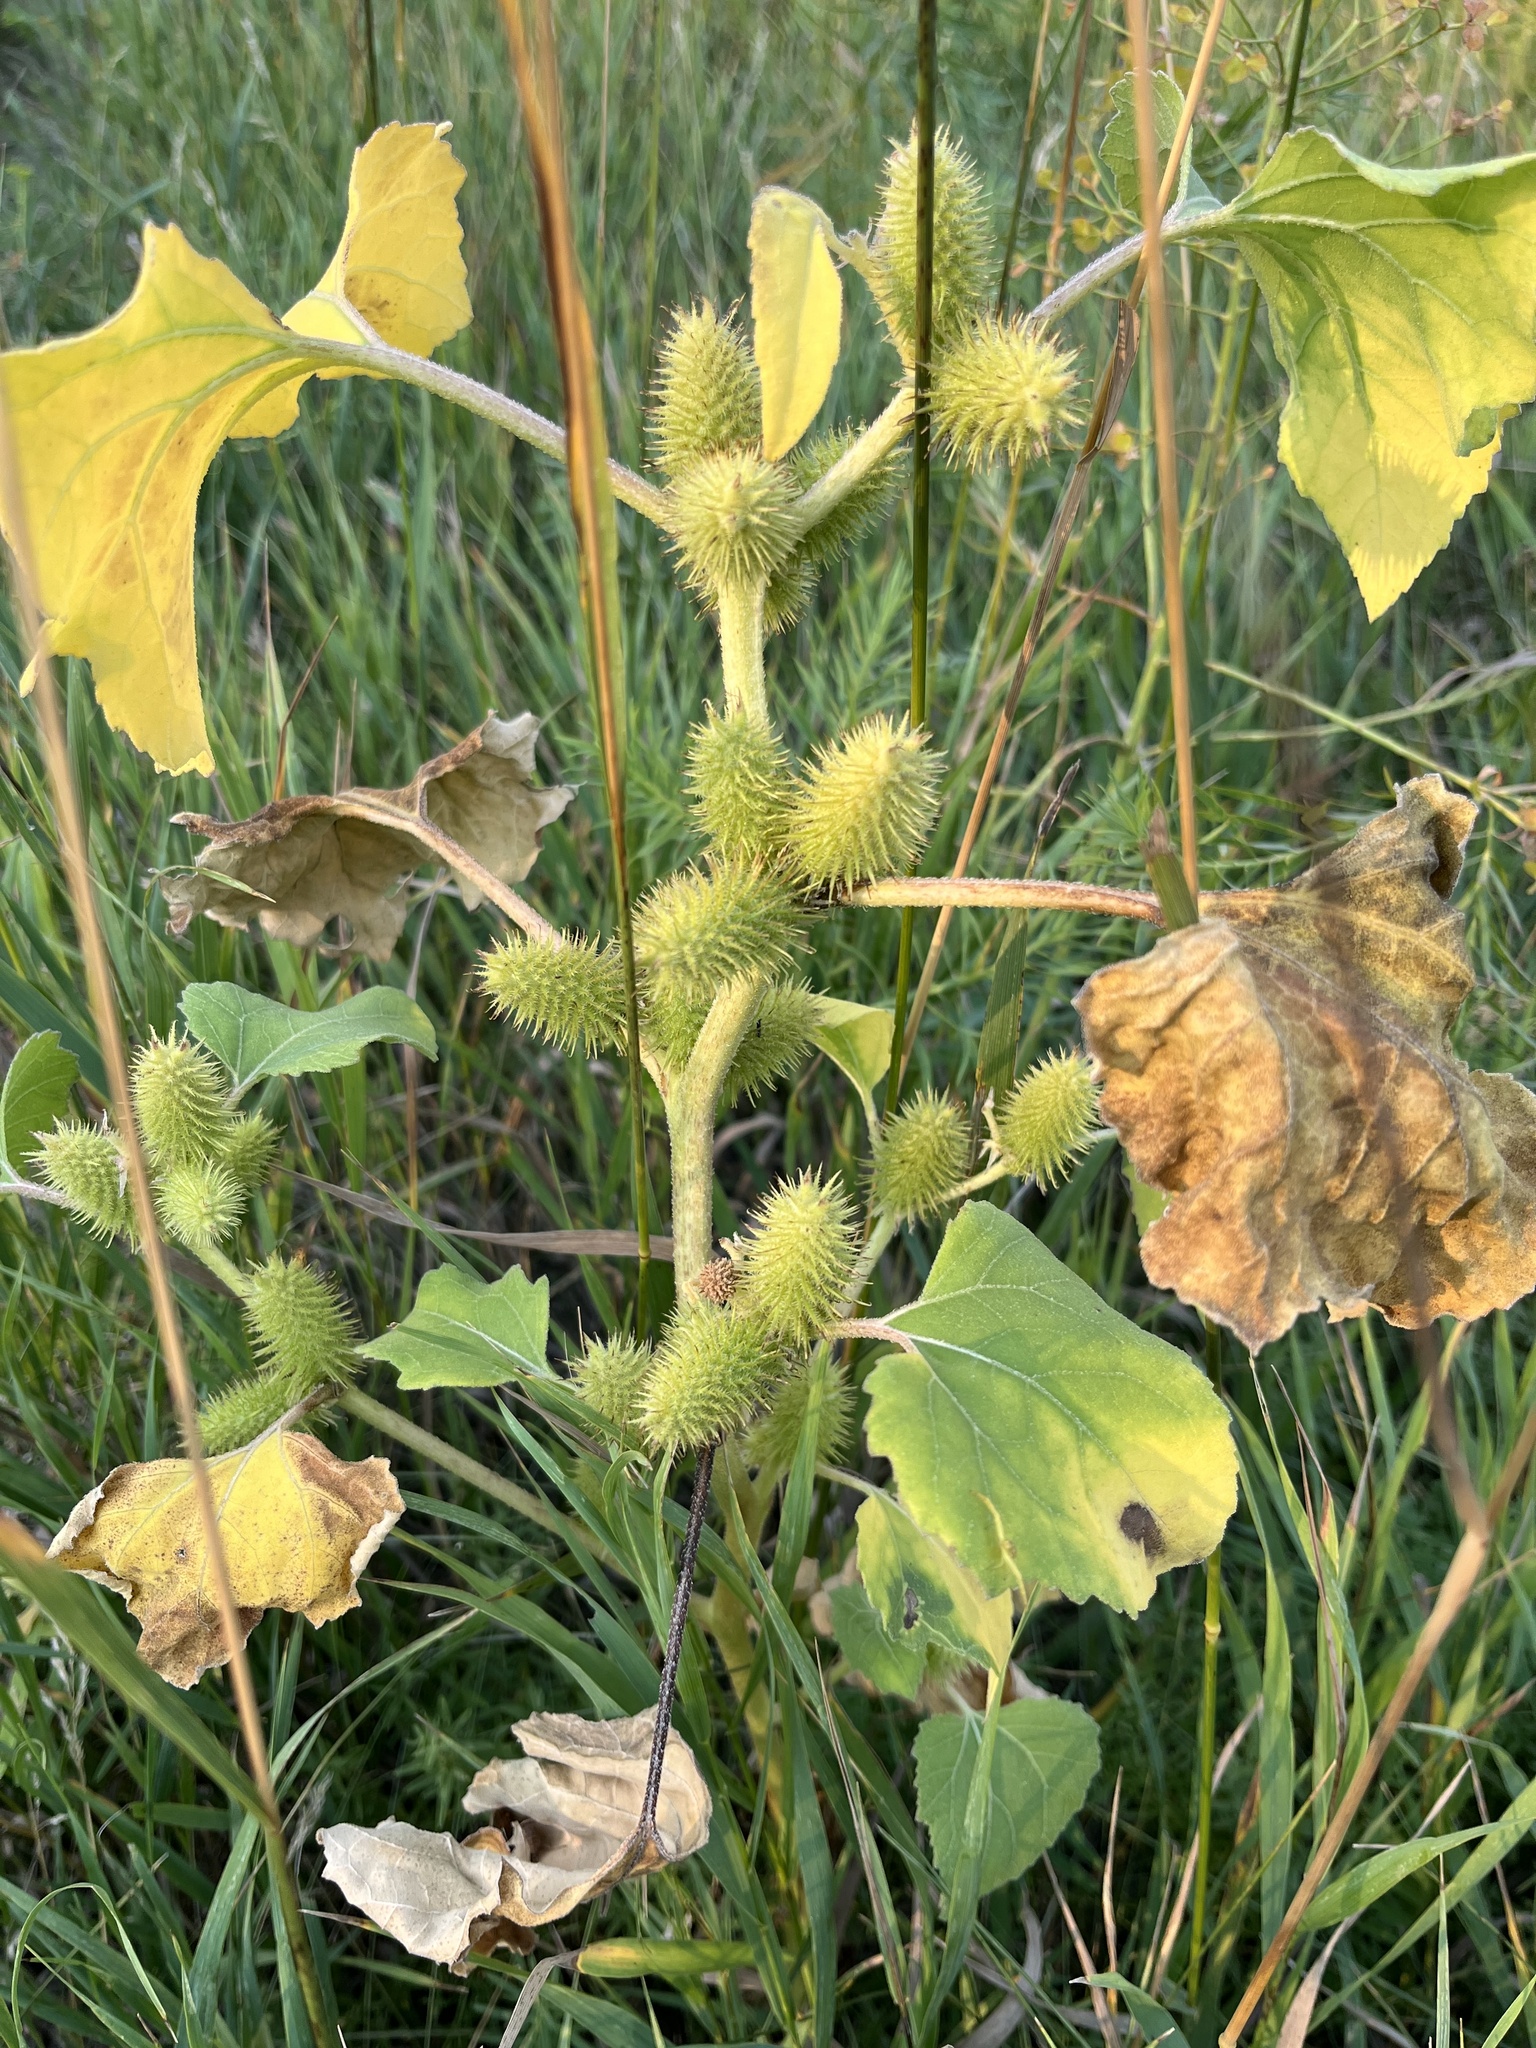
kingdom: Plantae
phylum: Tracheophyta
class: Magnoliopsida
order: Asterales
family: Asteraceae
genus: Xanthium
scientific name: Xanthium strumarium
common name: Rough cocklebur
